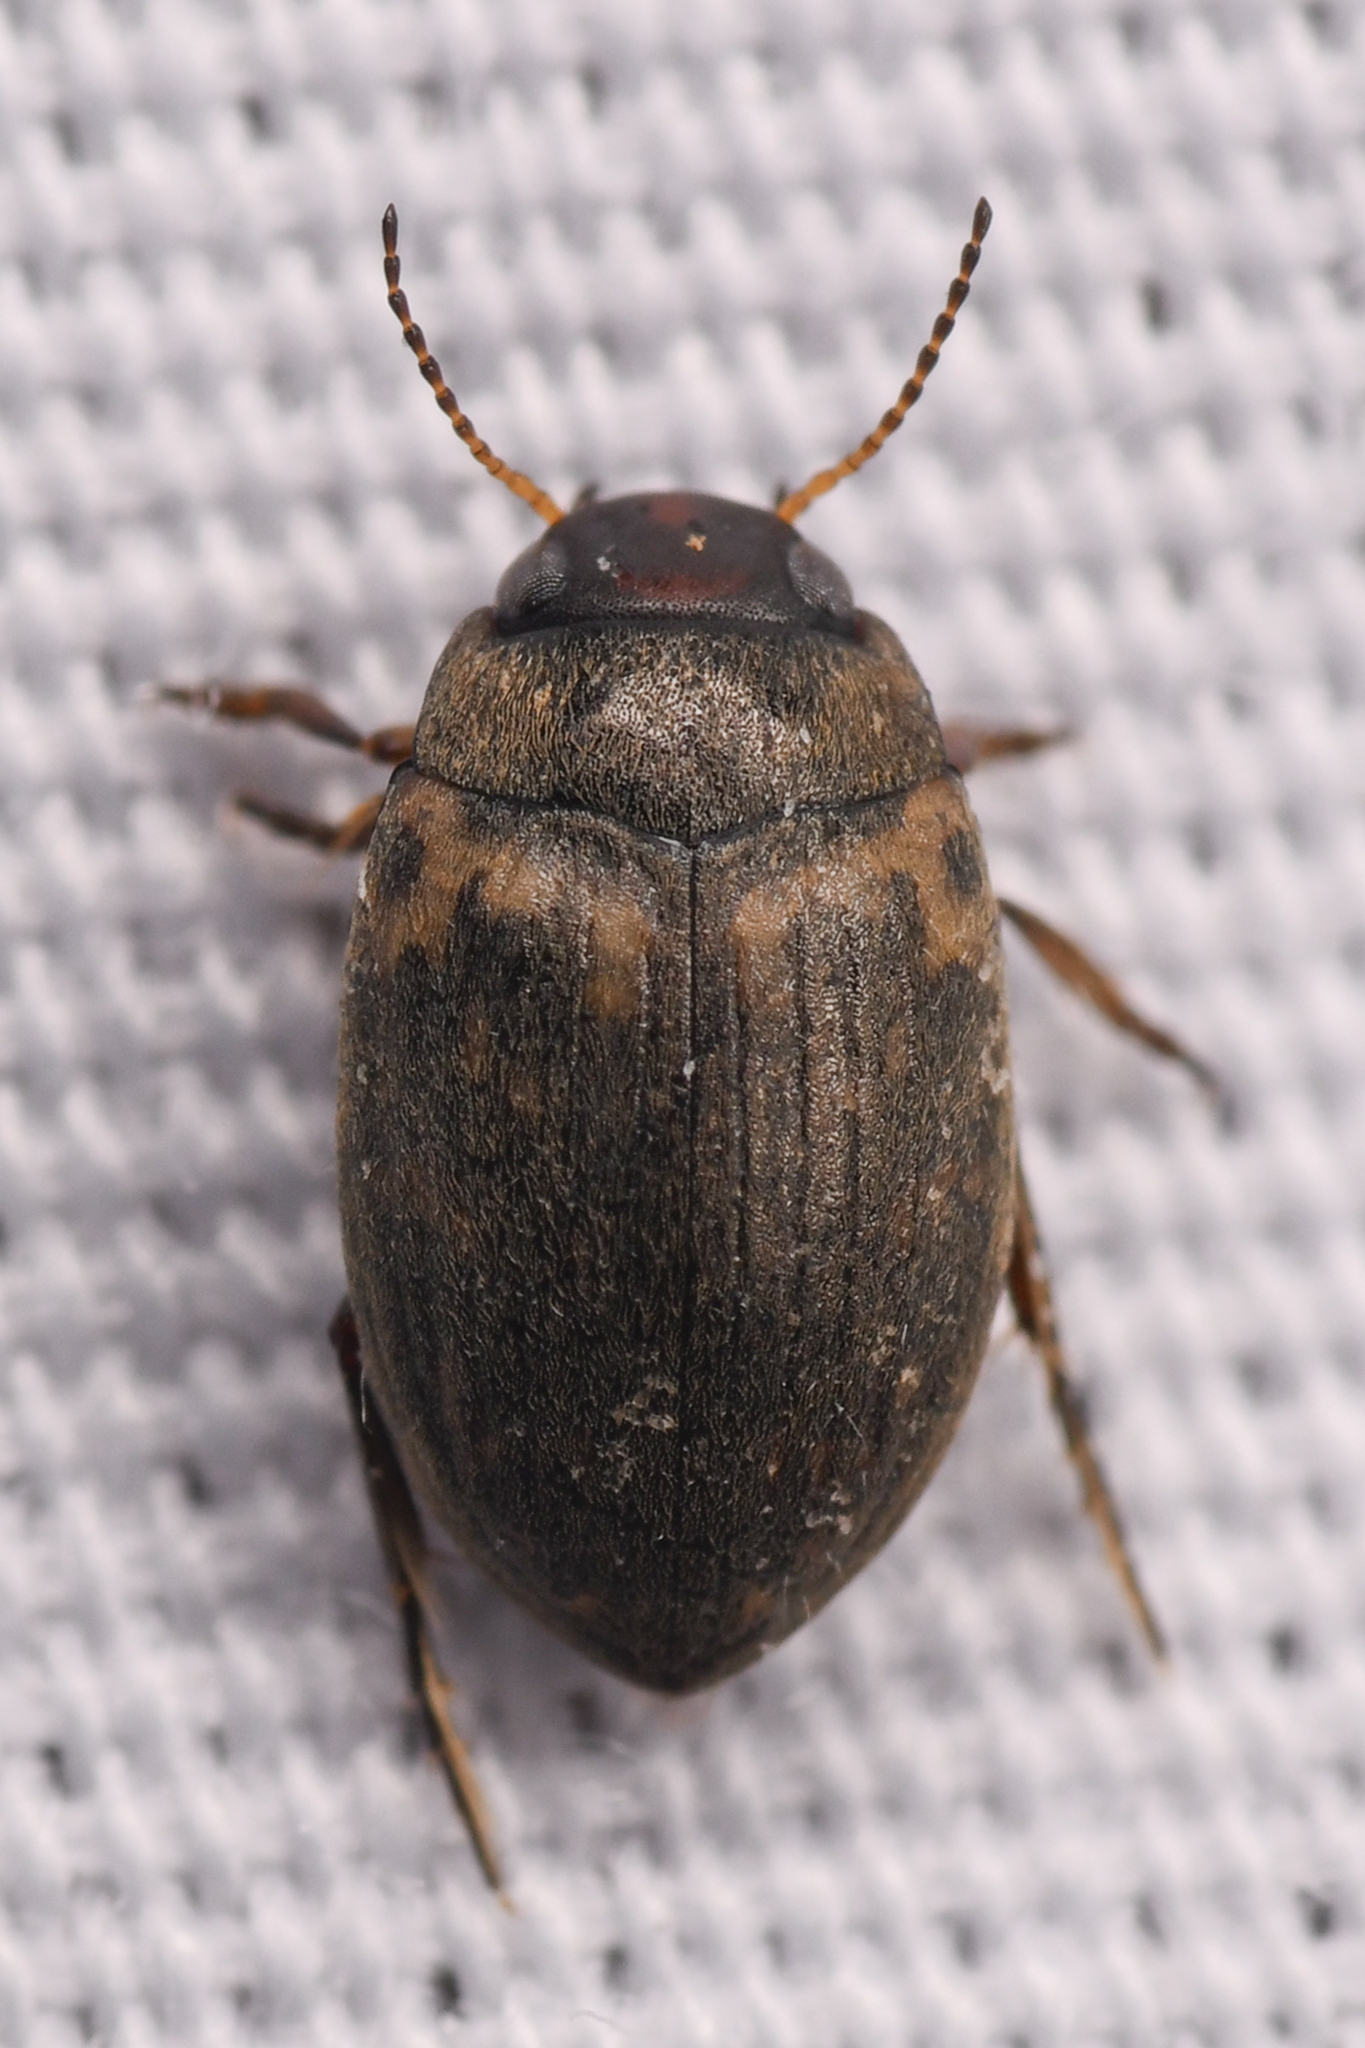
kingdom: Animalia
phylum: Arthropoda
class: Insecta
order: Coleoptera
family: Dytiscidae
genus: Leconectes
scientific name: Leconectes striatellus
